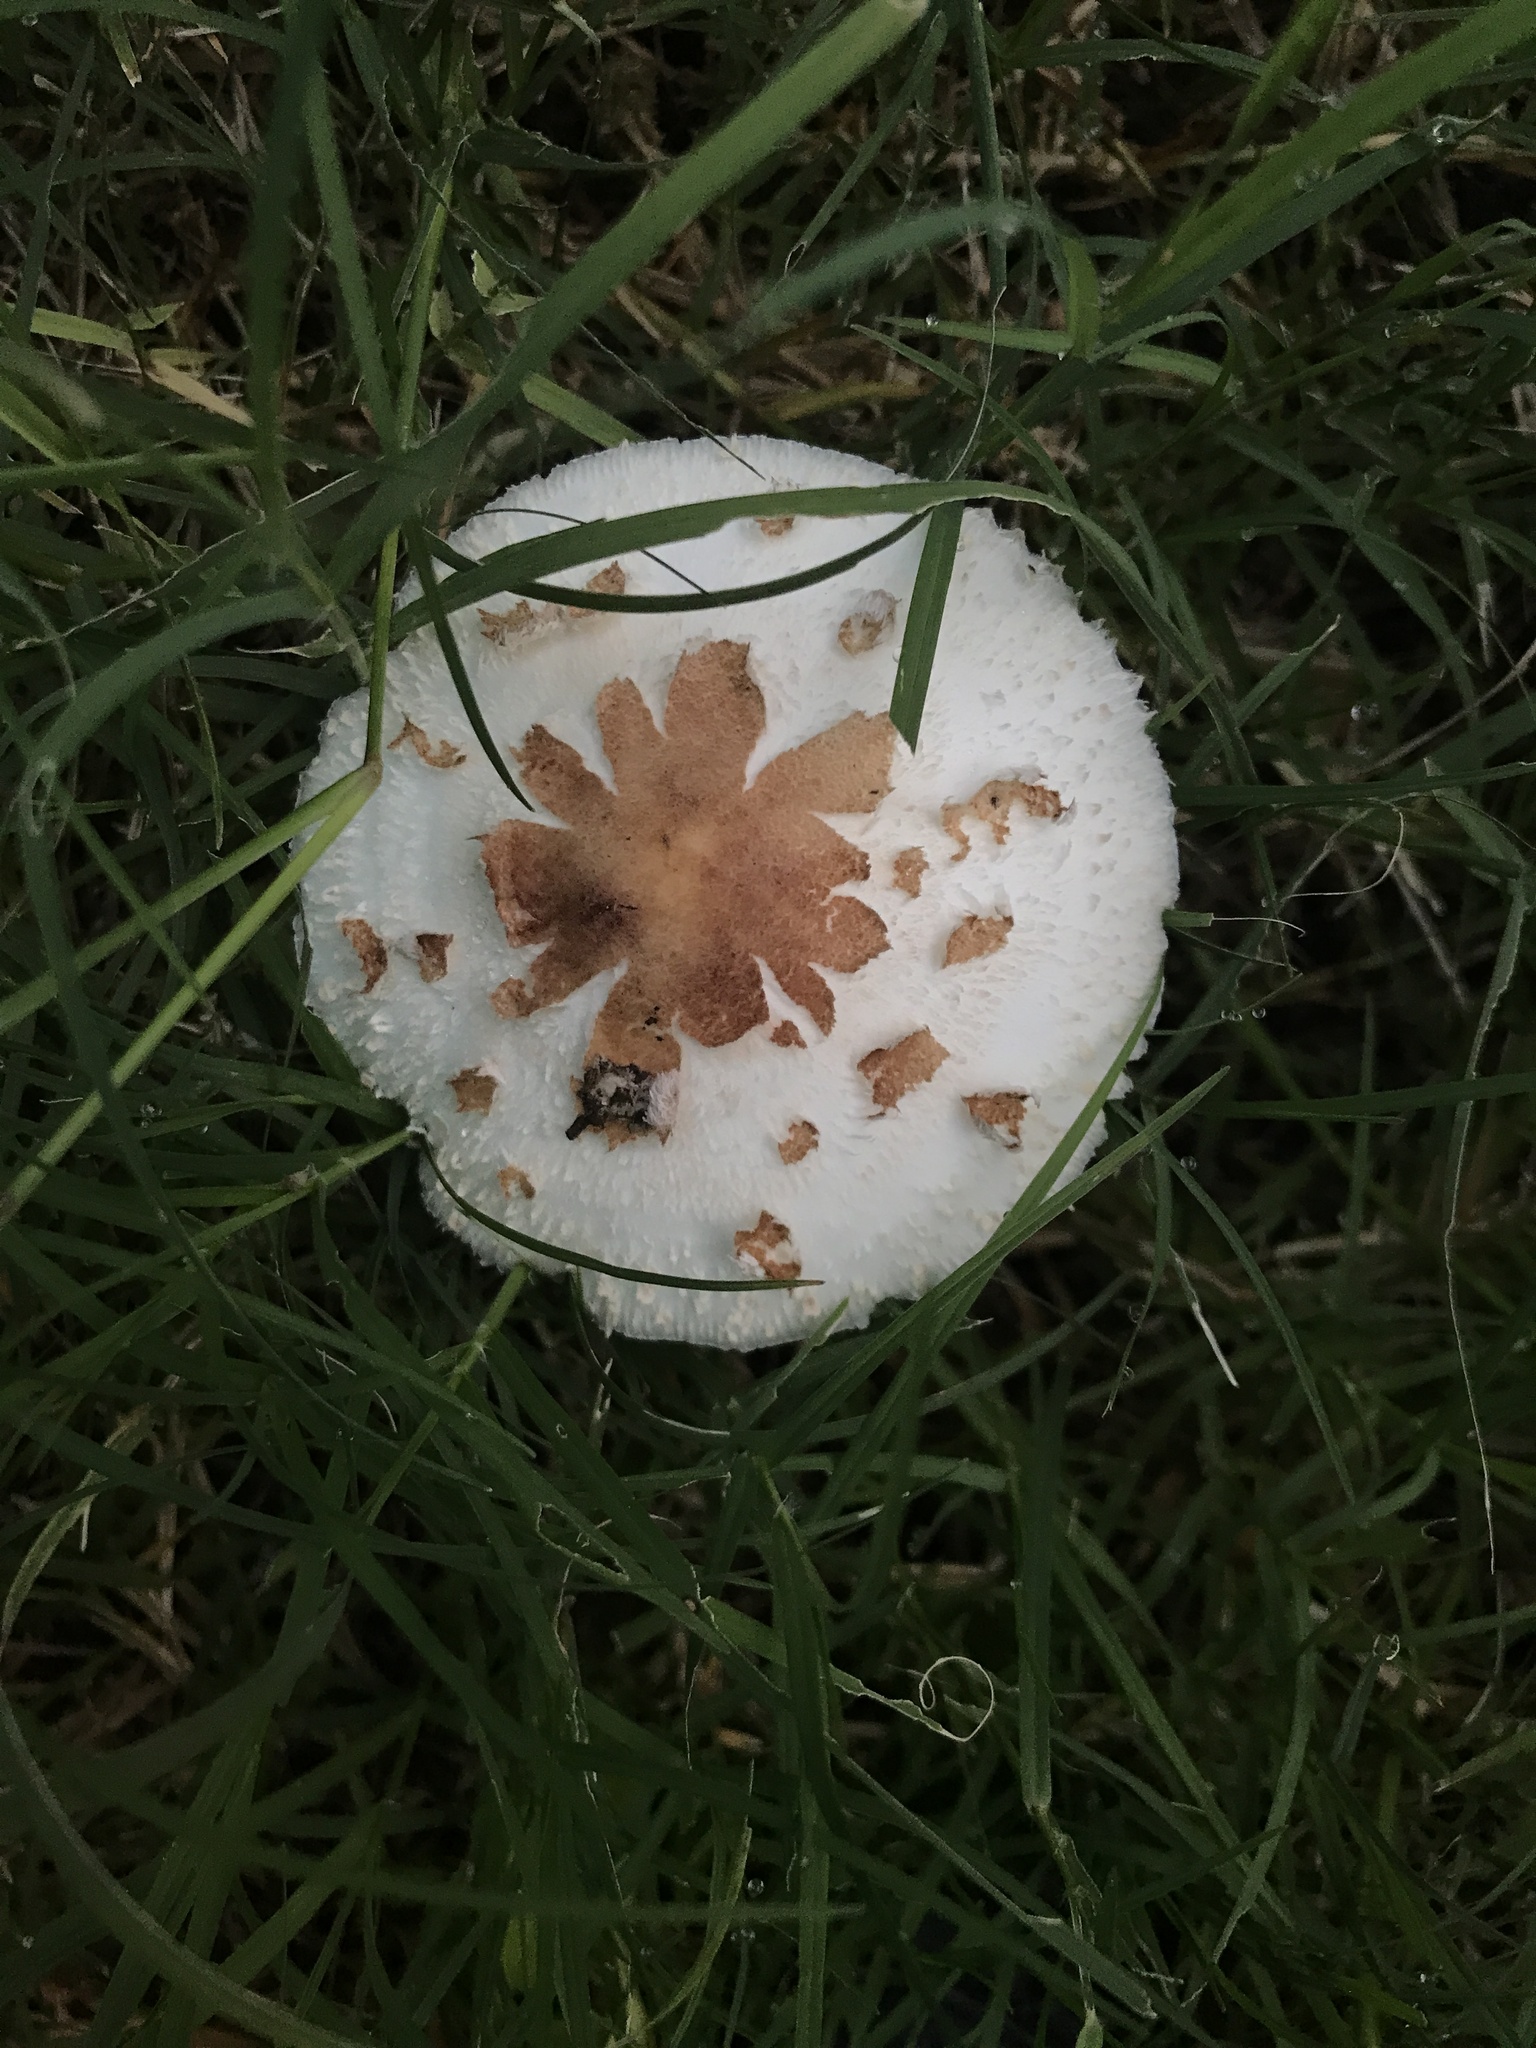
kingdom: Fungi
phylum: Basidiomycota
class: Agaricomycetes
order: Agaricales
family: Agaricaceae
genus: Chlorophyllum
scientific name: Chlorophyllum molybdites
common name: False parasol
